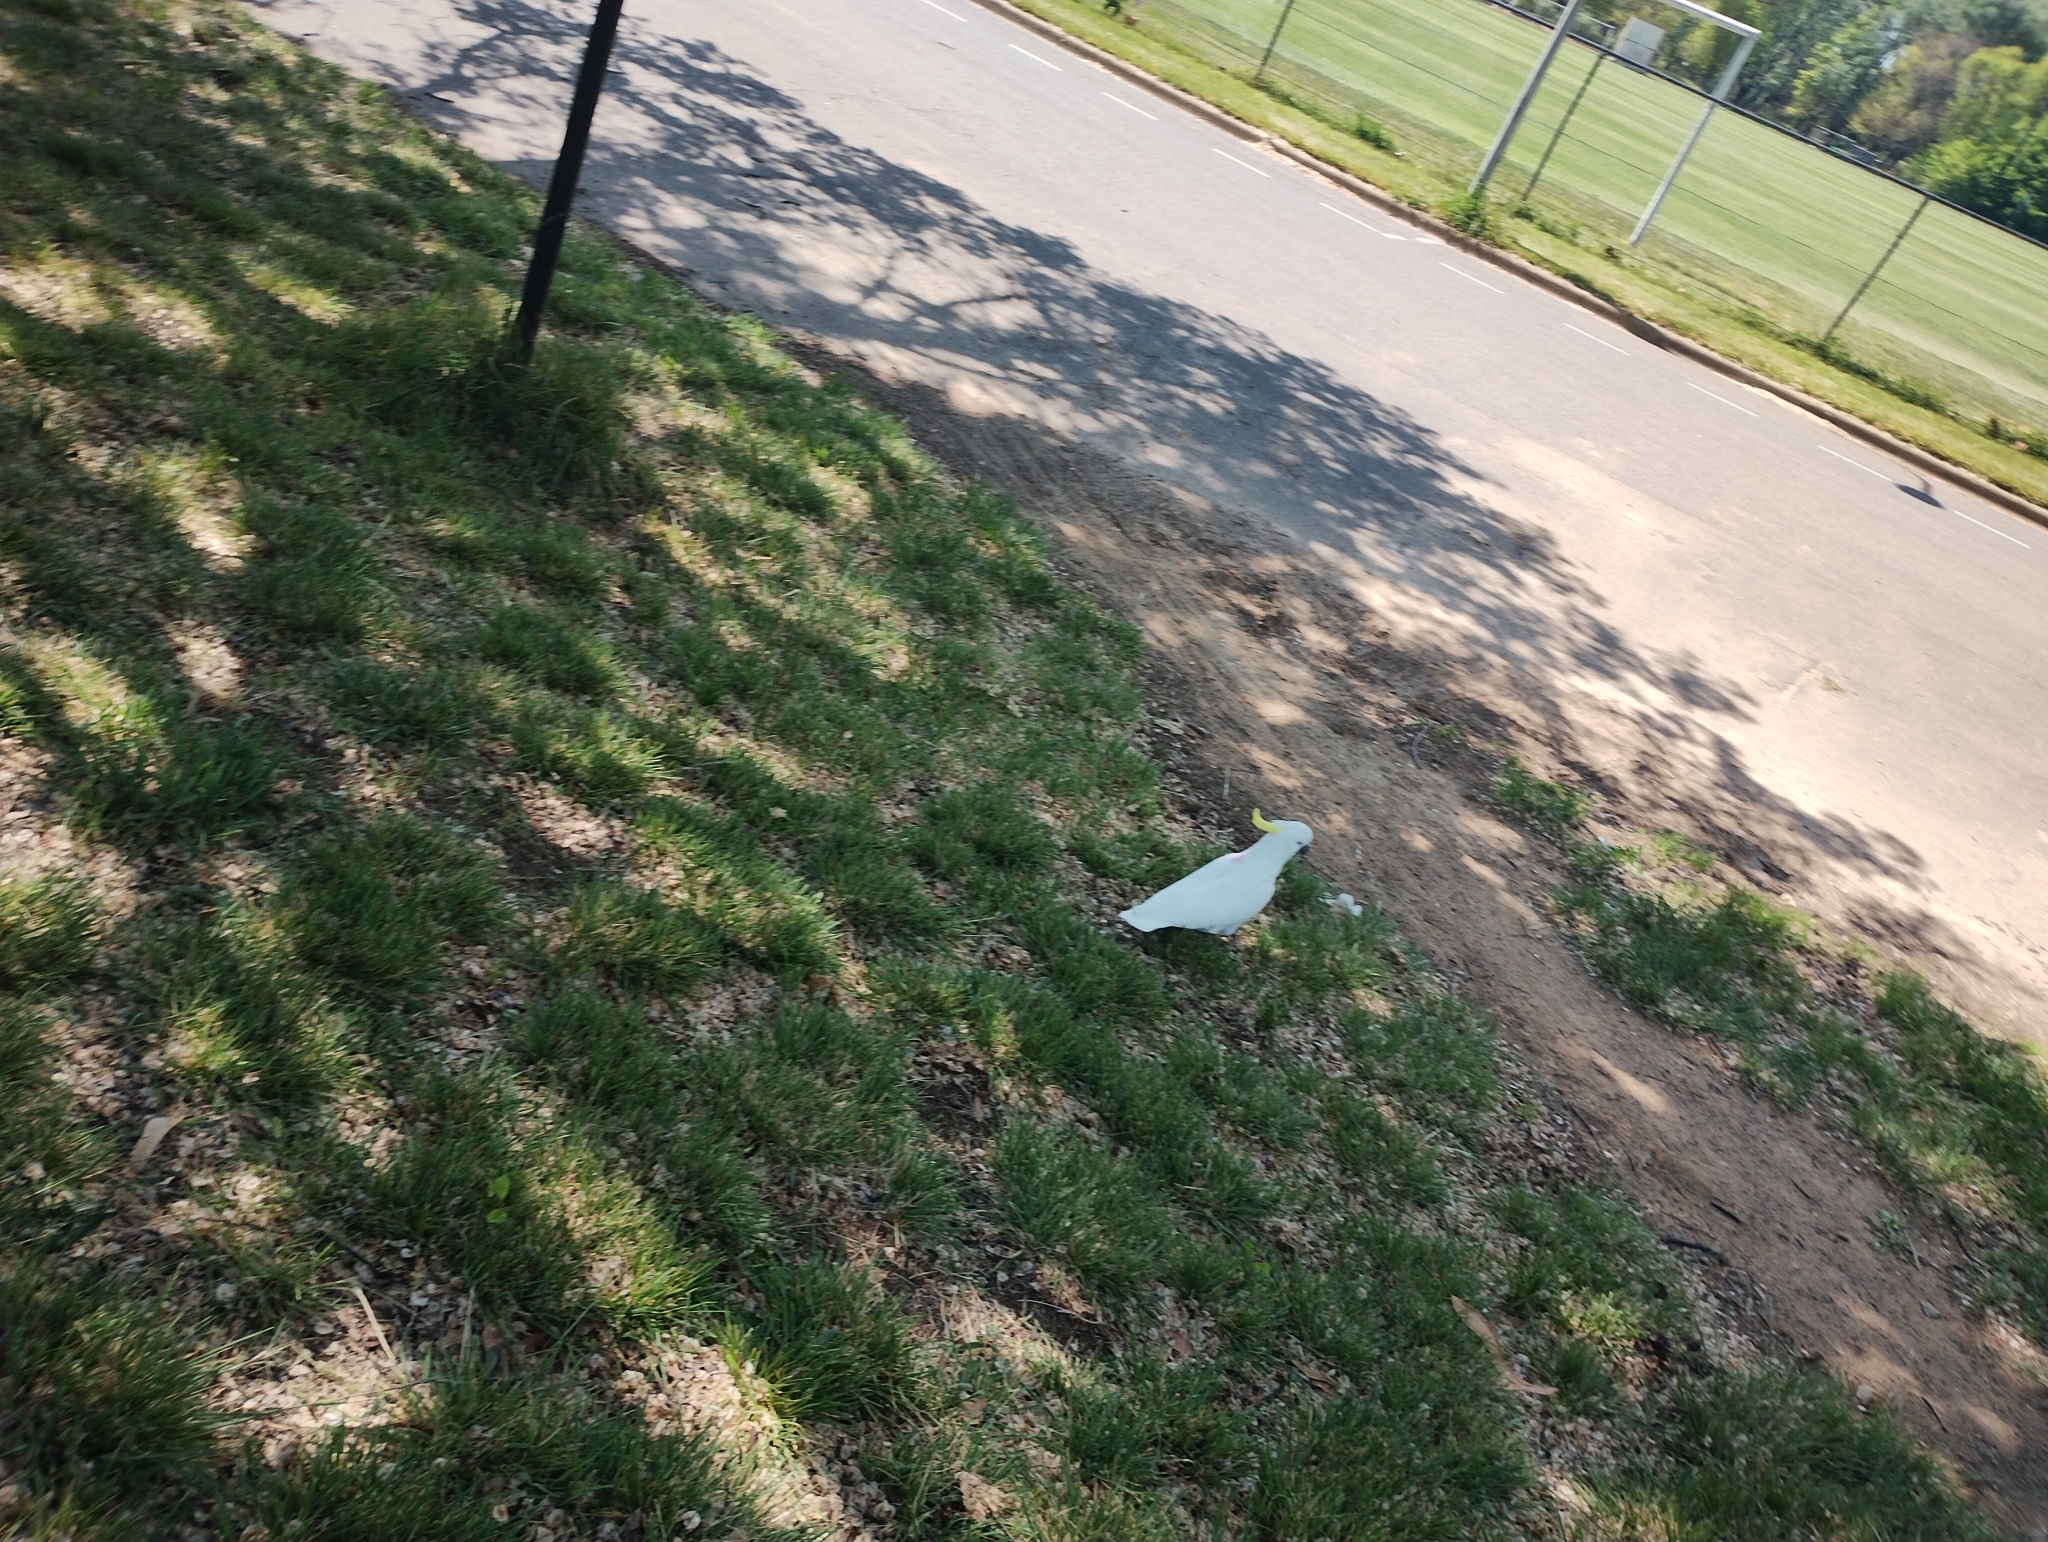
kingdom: Animalia
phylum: Chordata
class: Aves
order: Psittaciformes
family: Psittacidae
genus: Cacatua
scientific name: Cacatua galerita
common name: Sulphur-crested cockatoo
